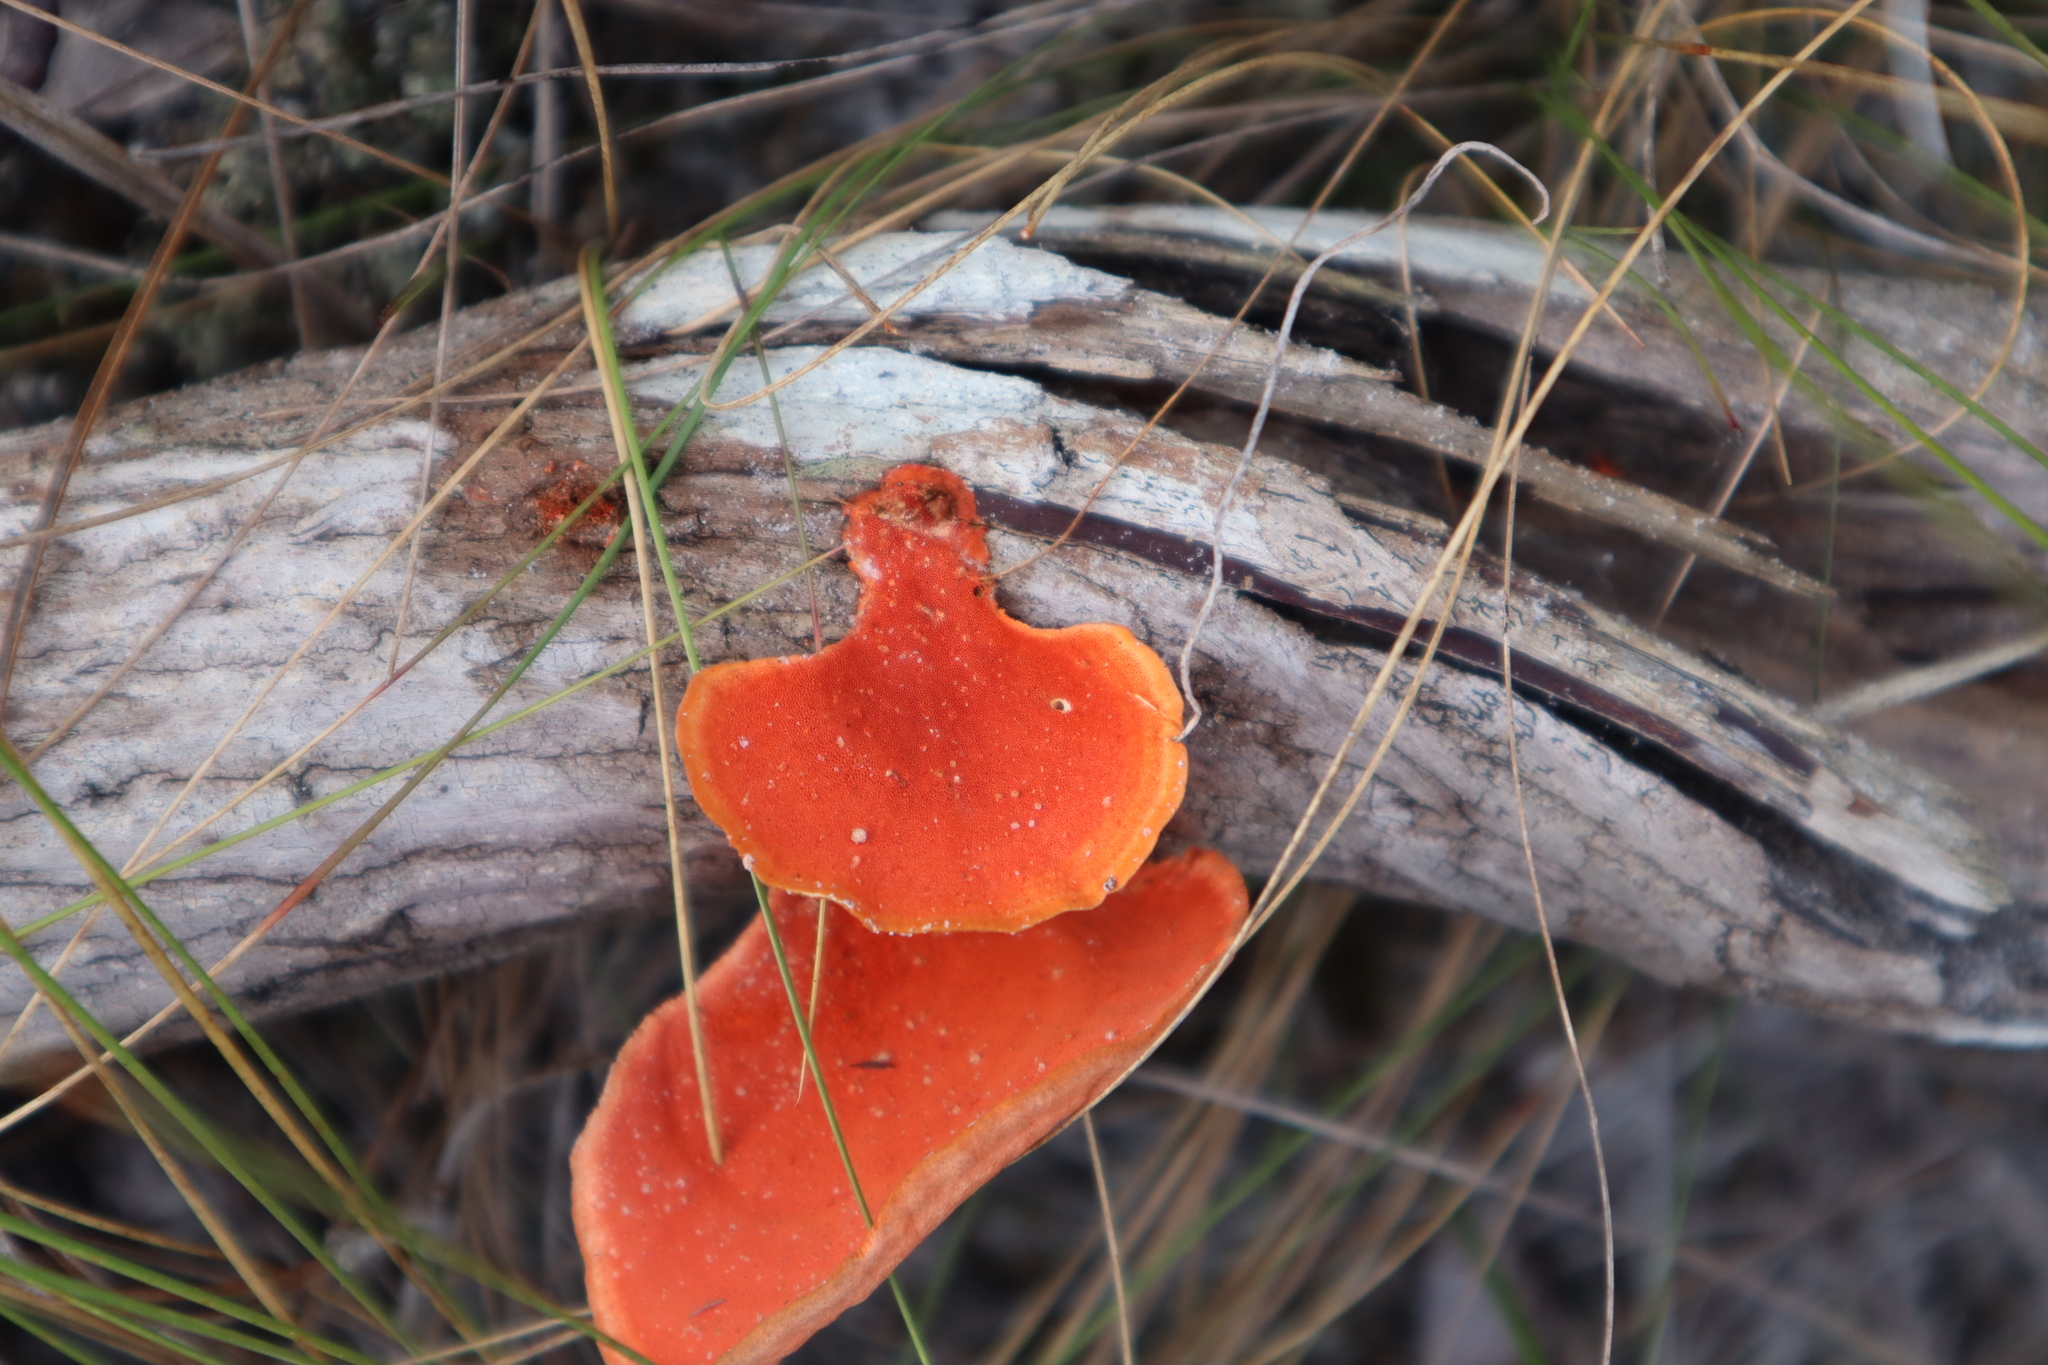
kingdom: Fungi
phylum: Basidiomycota
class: Agaricomycetes
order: Polyporales
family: Polyporaceae
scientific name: Polyporaceae
